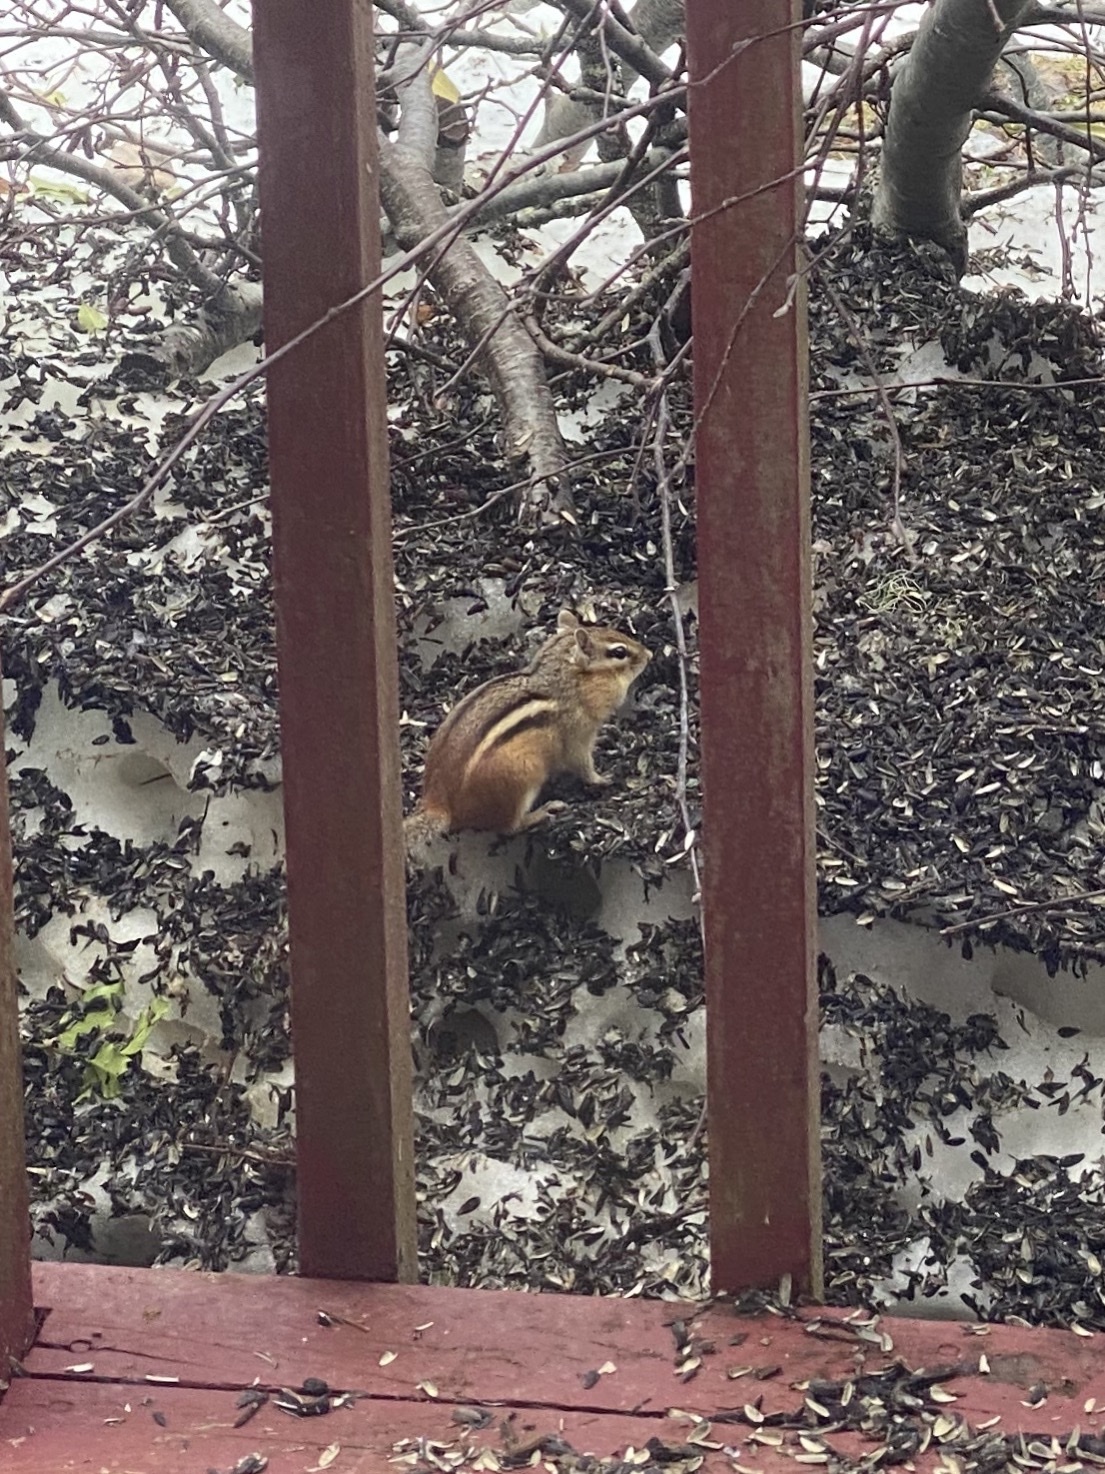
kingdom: Animalia
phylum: Chordata
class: Mammalia
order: Rodentia
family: Sciuridae
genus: Tamias
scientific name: Tamias striatus
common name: Eastern chipmunk
